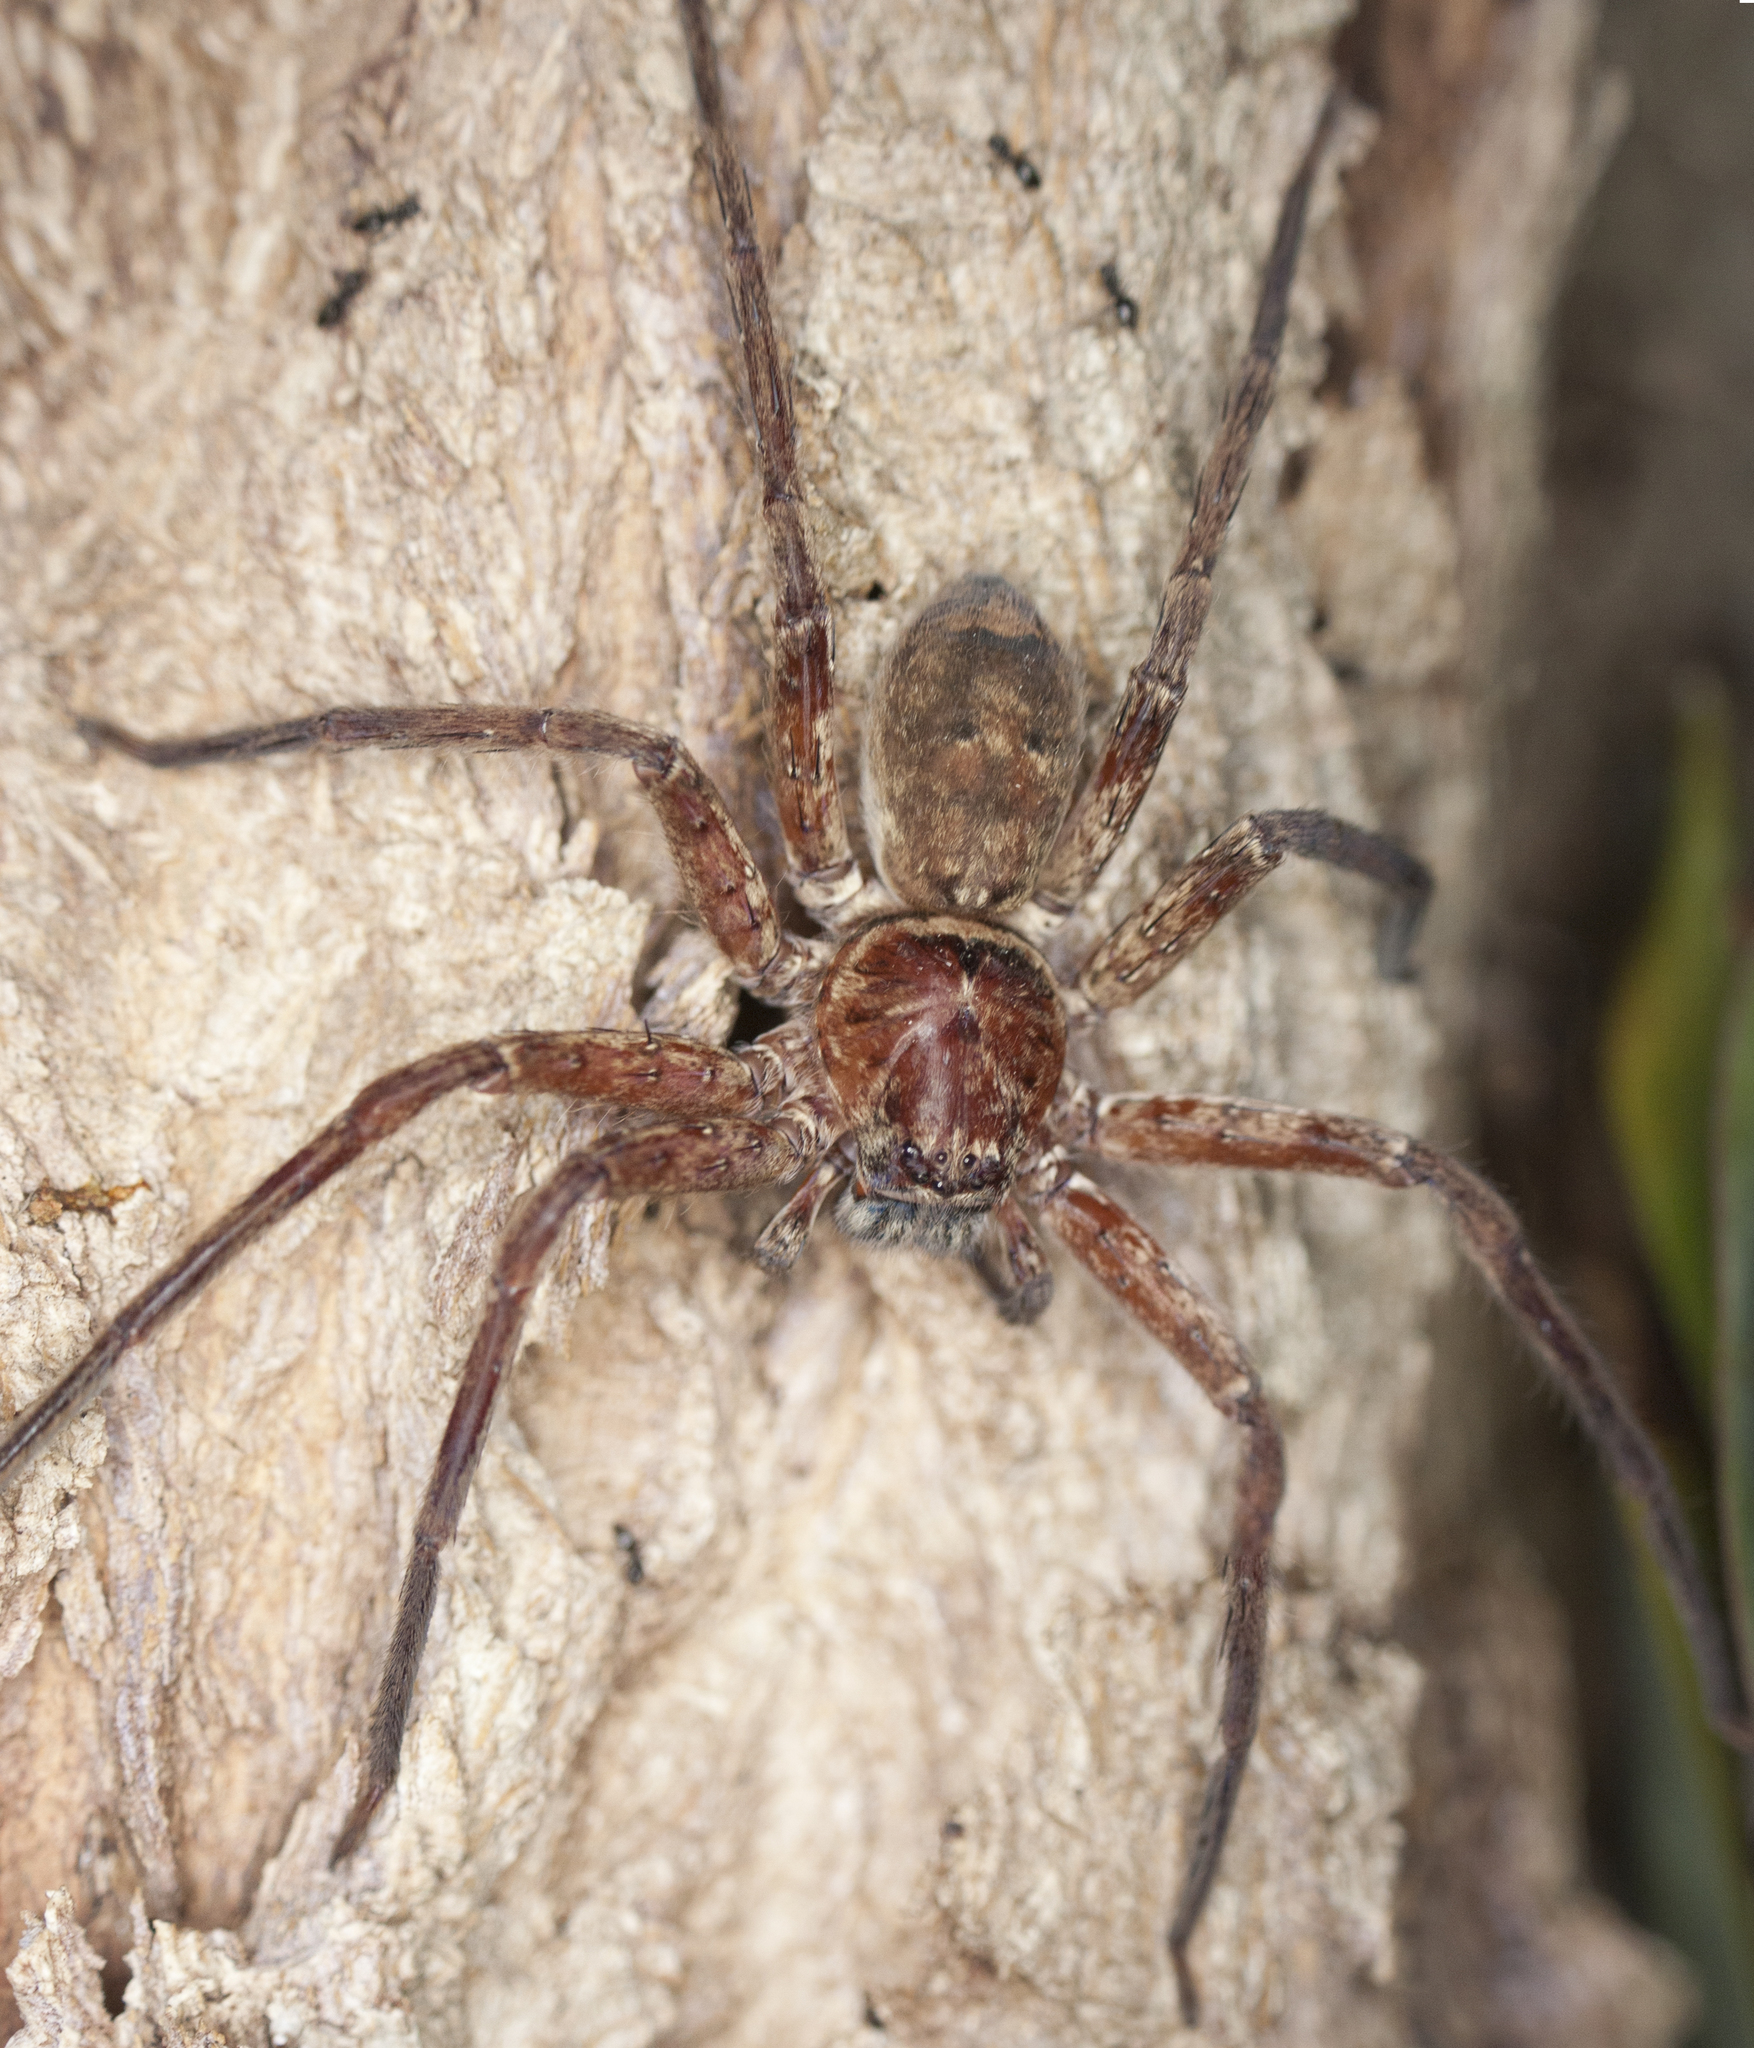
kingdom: Animalia
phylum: Arthropoda
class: Arachnida
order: Araneae
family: Sparassidae
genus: Heteropoda
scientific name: Heteropoda jugulans
